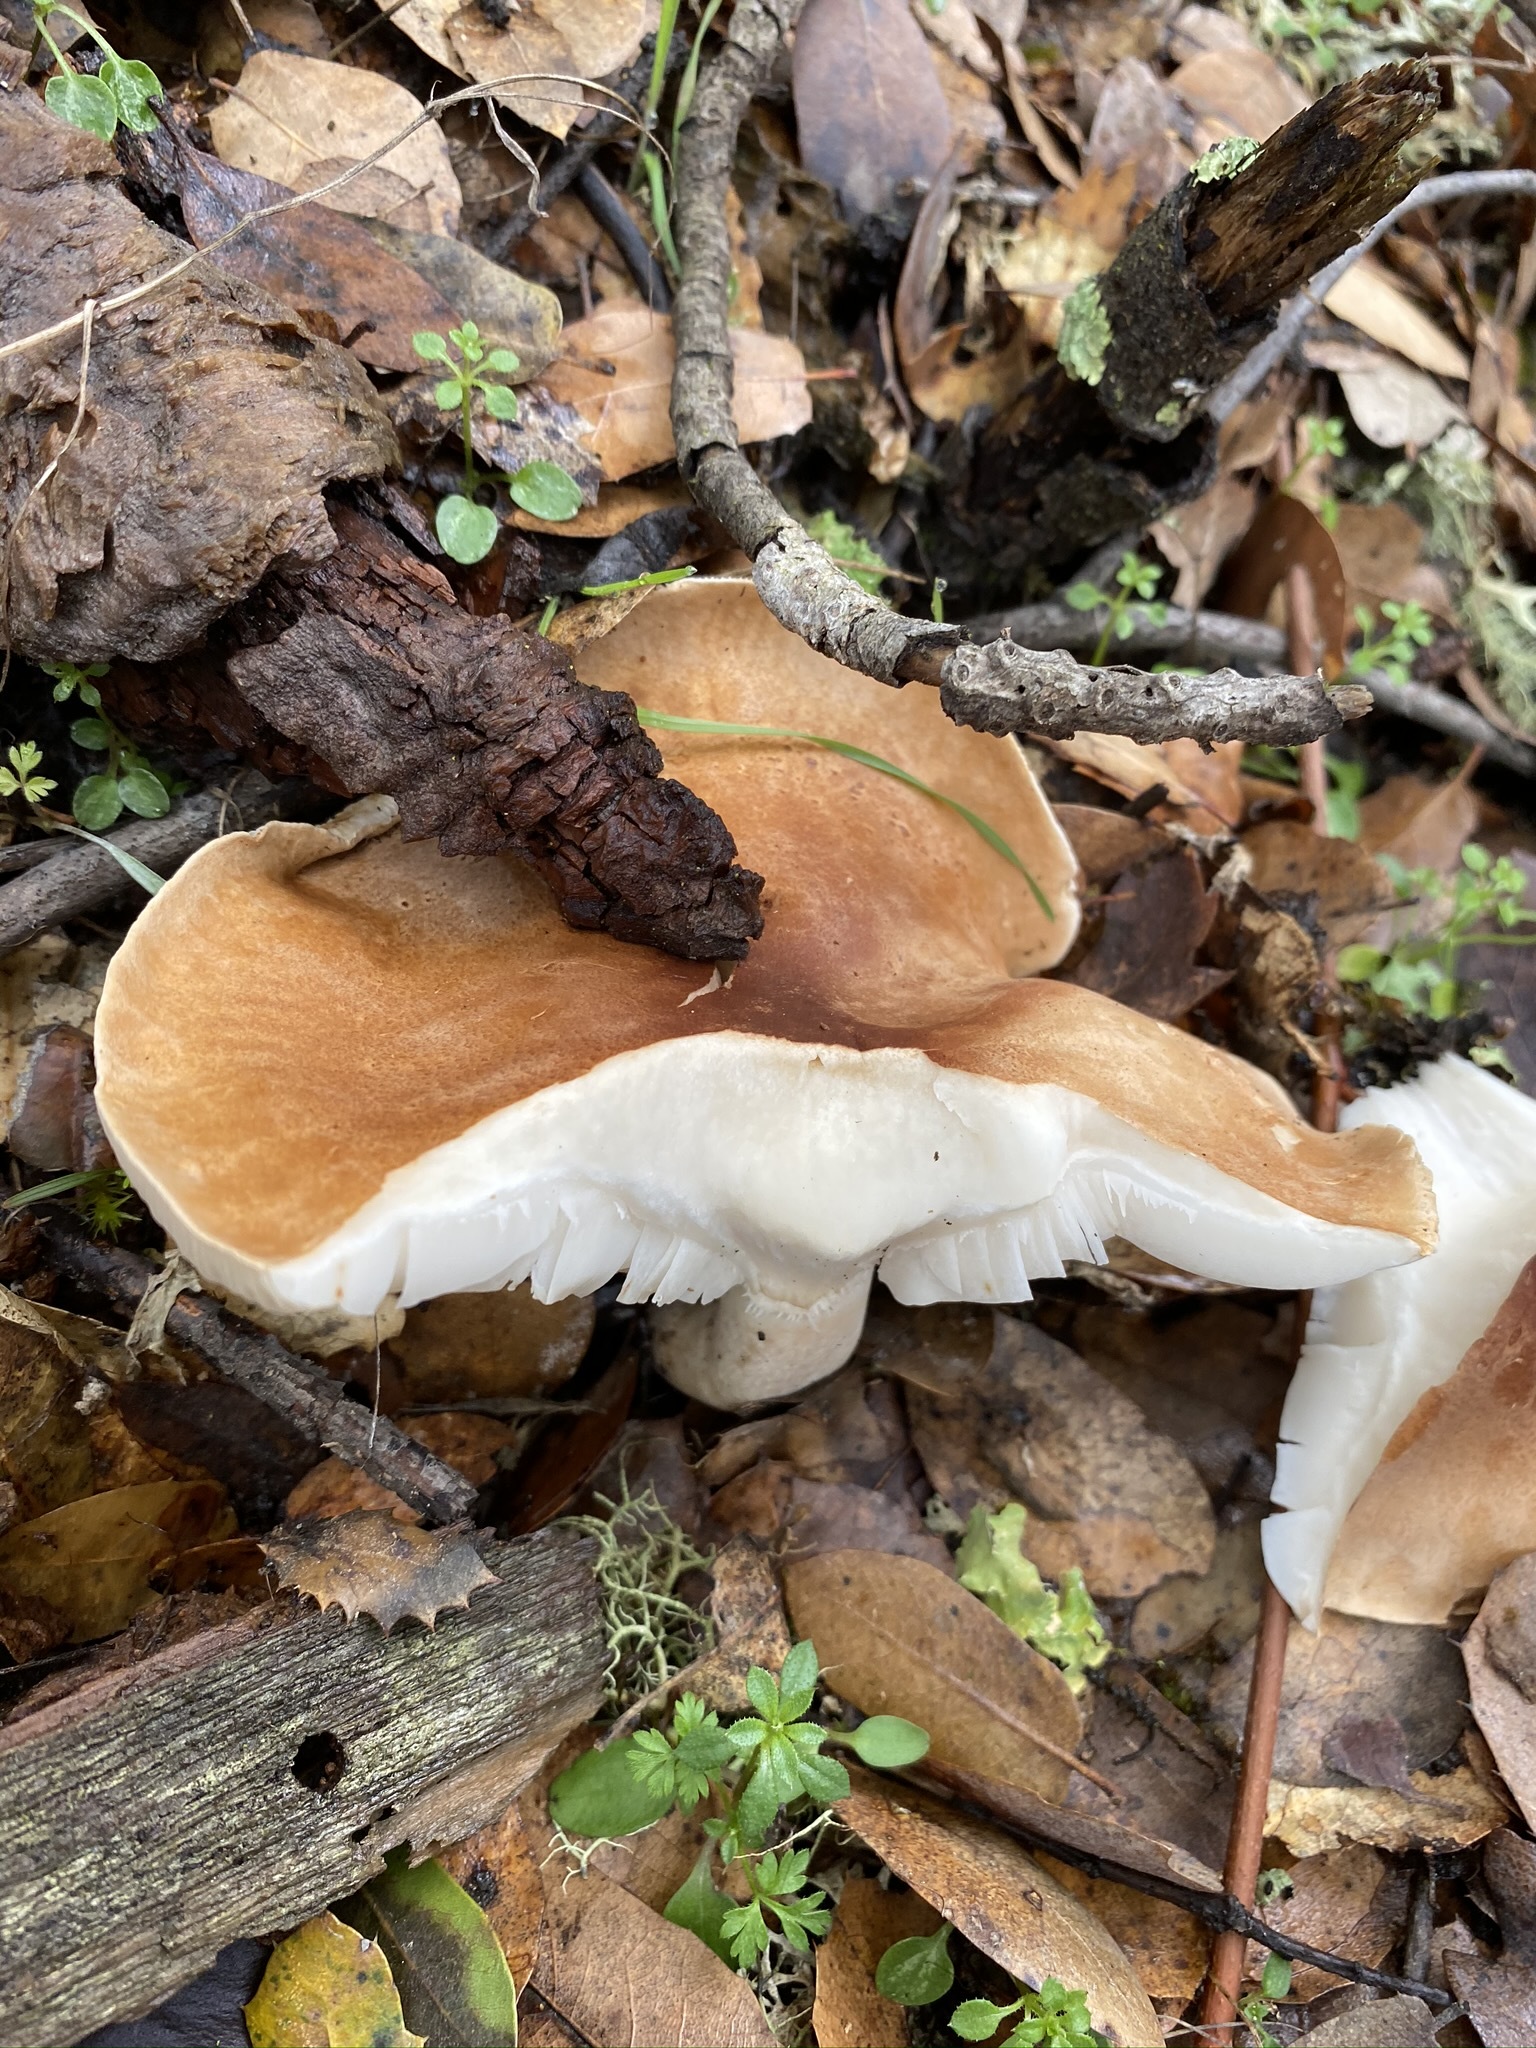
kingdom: Fungi
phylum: Basidiomycota
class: Agaricomycetes
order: Agaricales
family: Tricholomataceae
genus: Leucopaxillus
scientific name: Leucopaxillus gentianeus
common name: Bitter funnel
